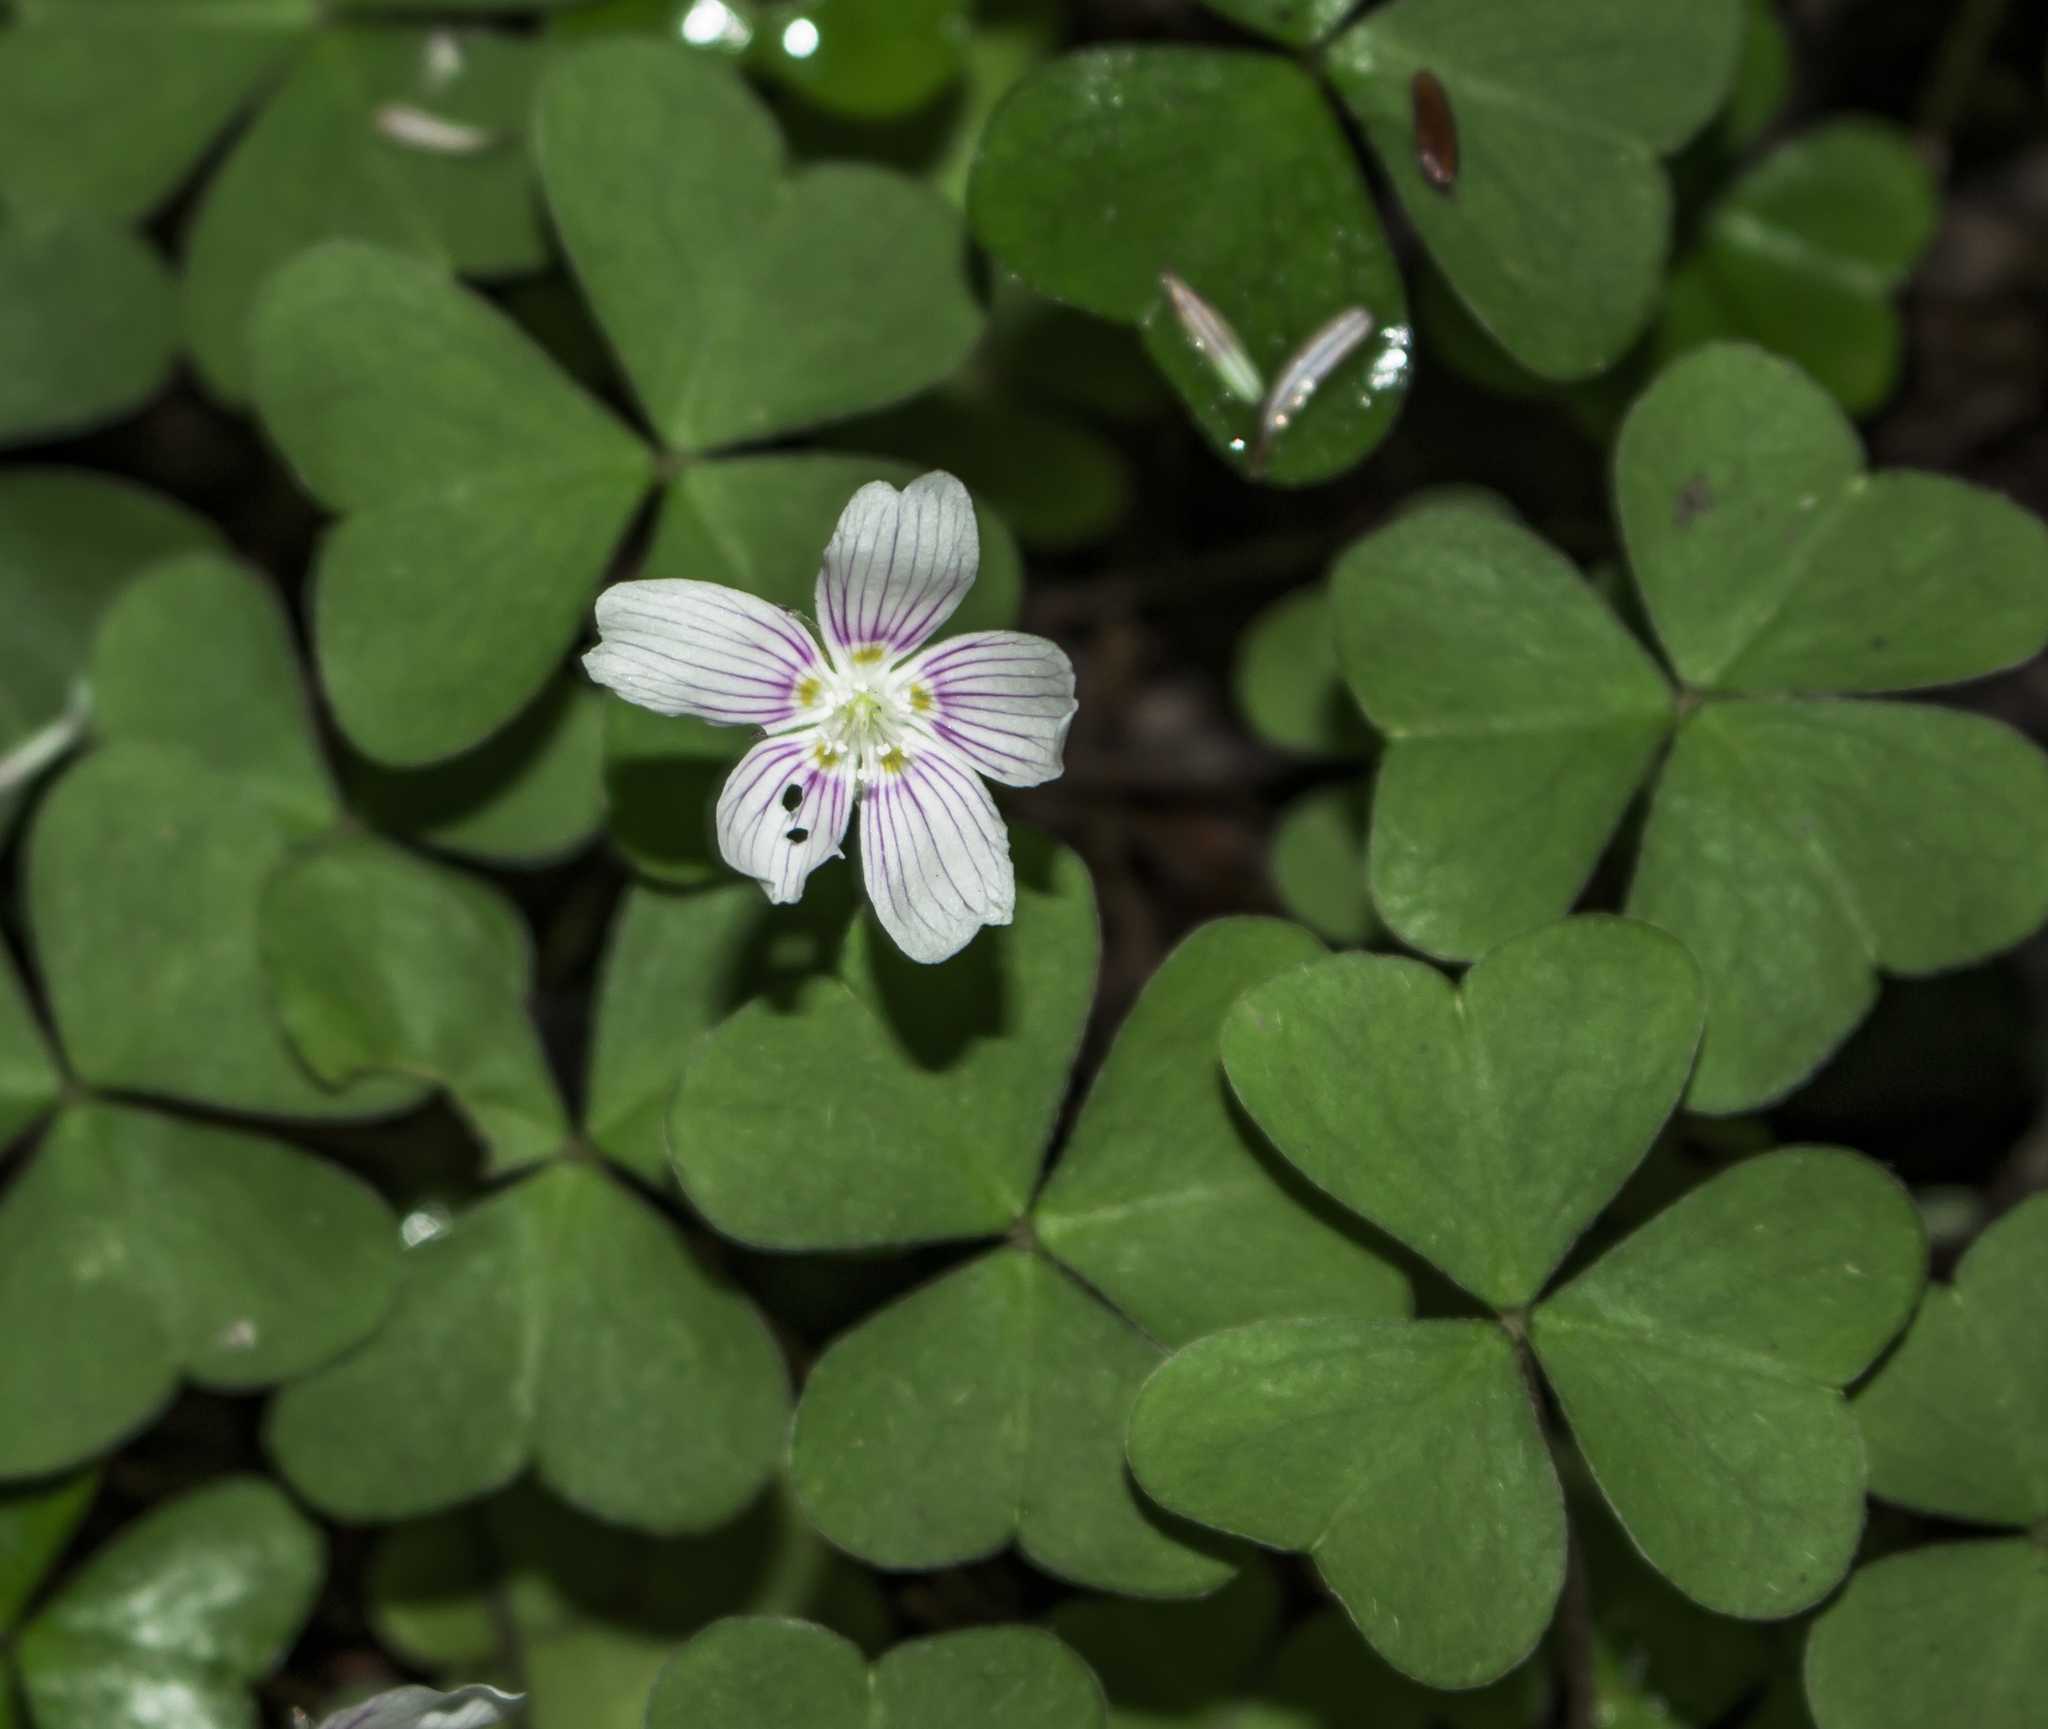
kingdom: Plantae
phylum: Tracheophyta
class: Magnoliopsida
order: Oxalidales
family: Oxalidaceae
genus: Oxalis
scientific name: Oxalis montana
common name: American wood-sorrel
